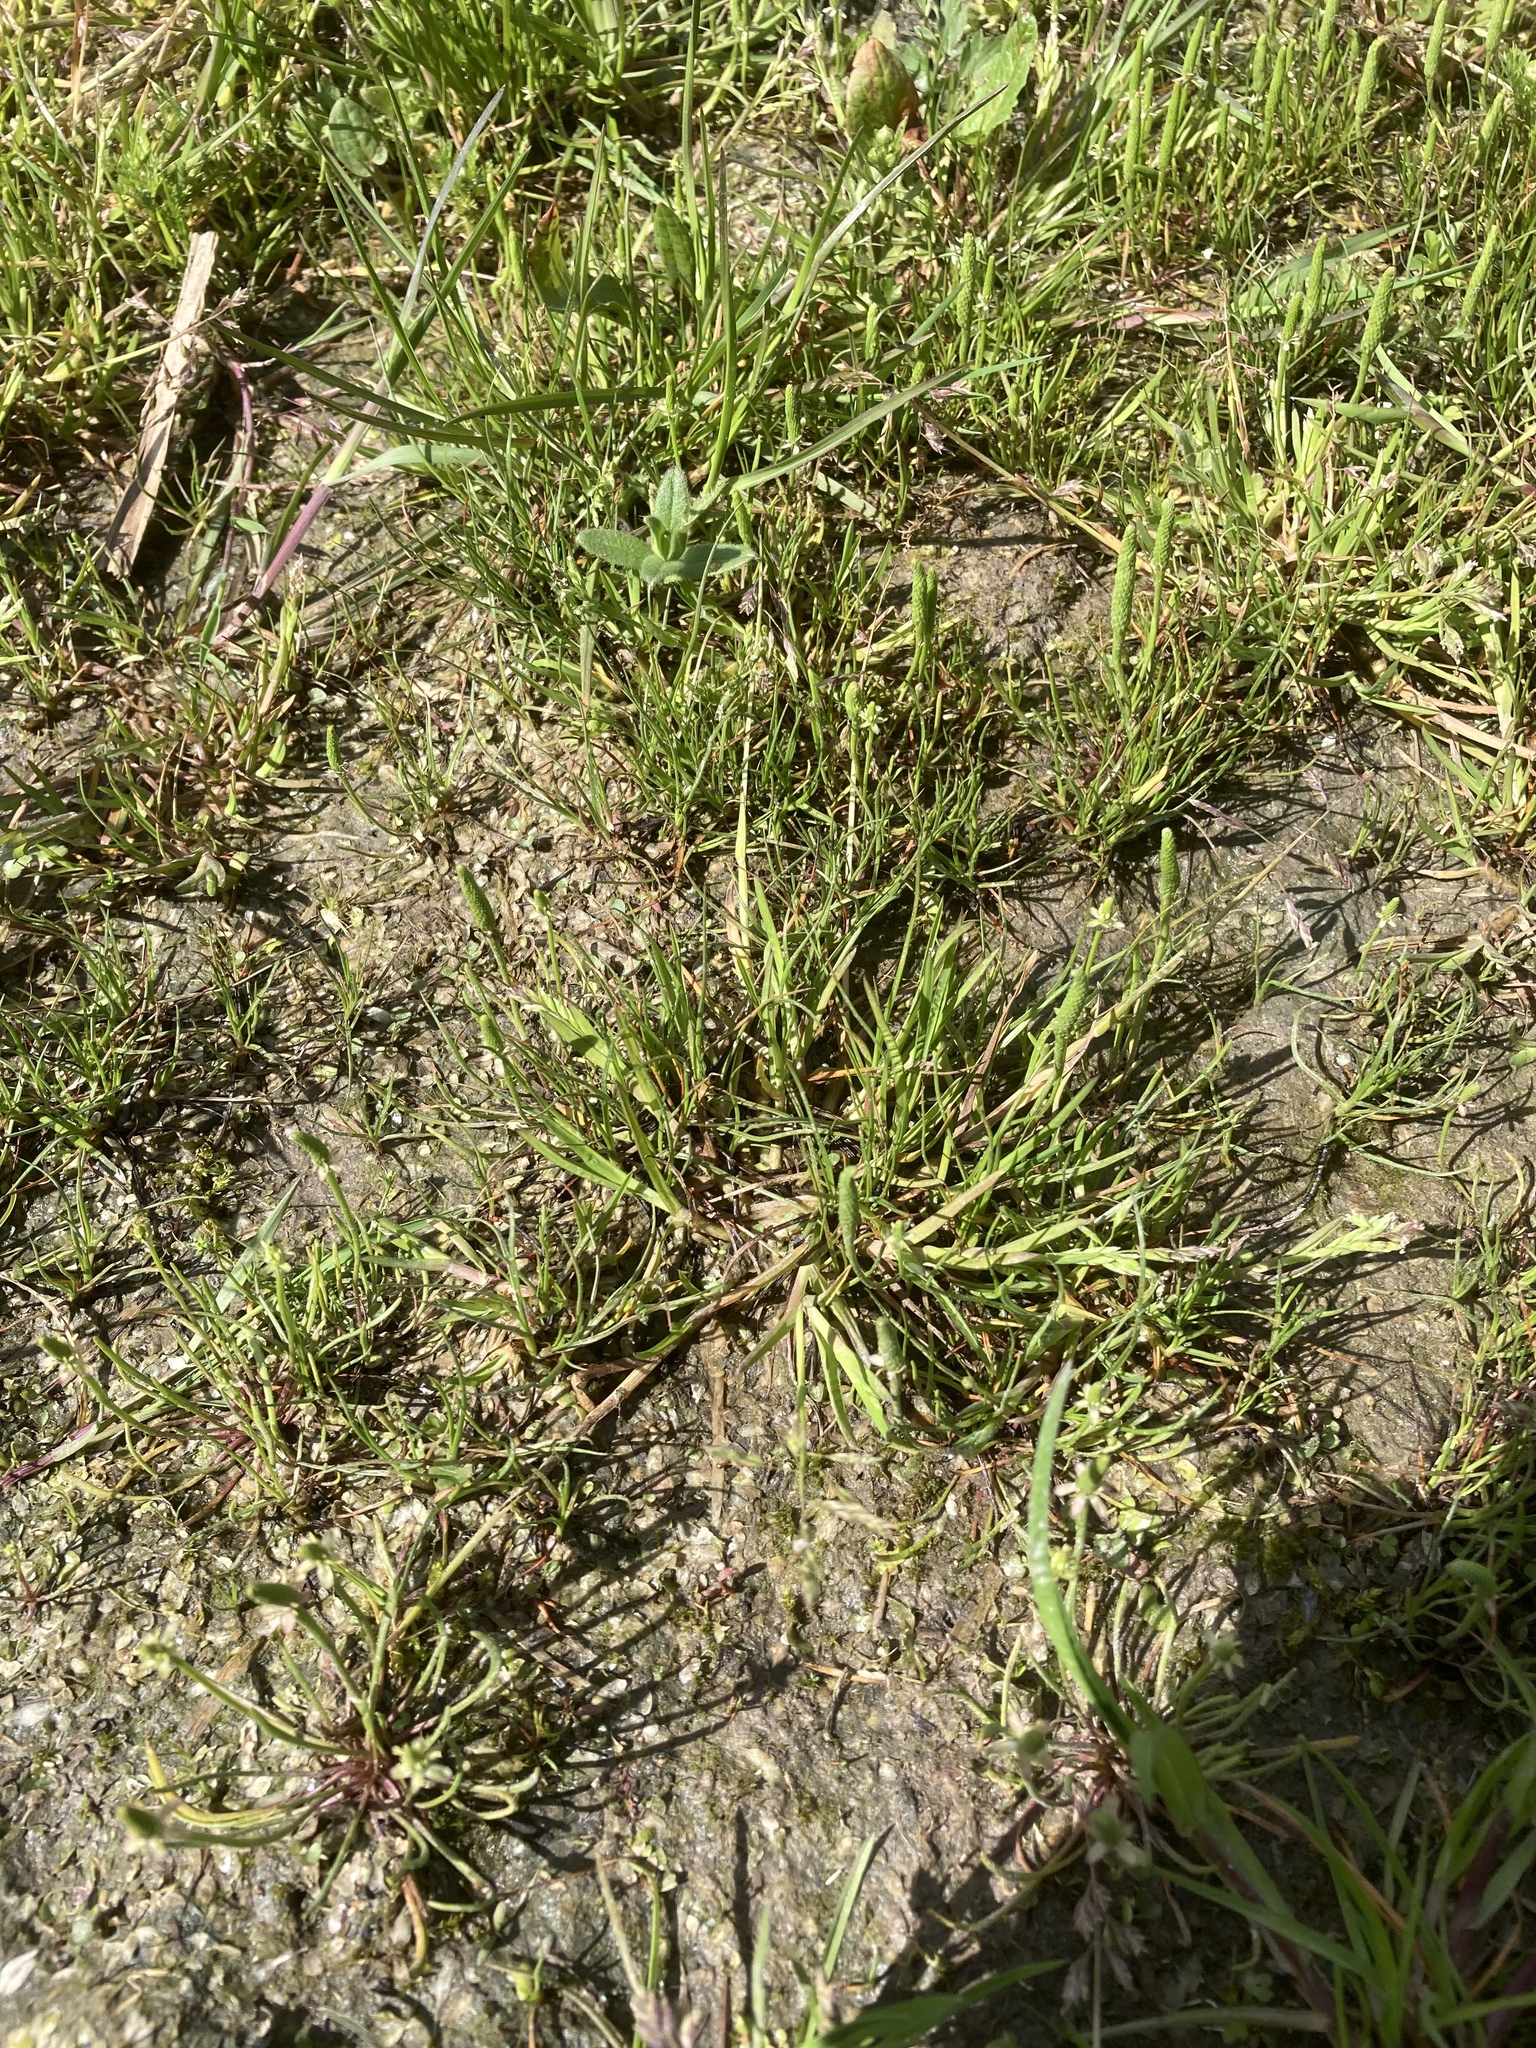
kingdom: Plantae
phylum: Tracheophyta
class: Magnoliopsida
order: Ranunculales
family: Ranunculaceae
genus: Myosurus
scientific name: Myosurus minimus
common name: Mousetail
